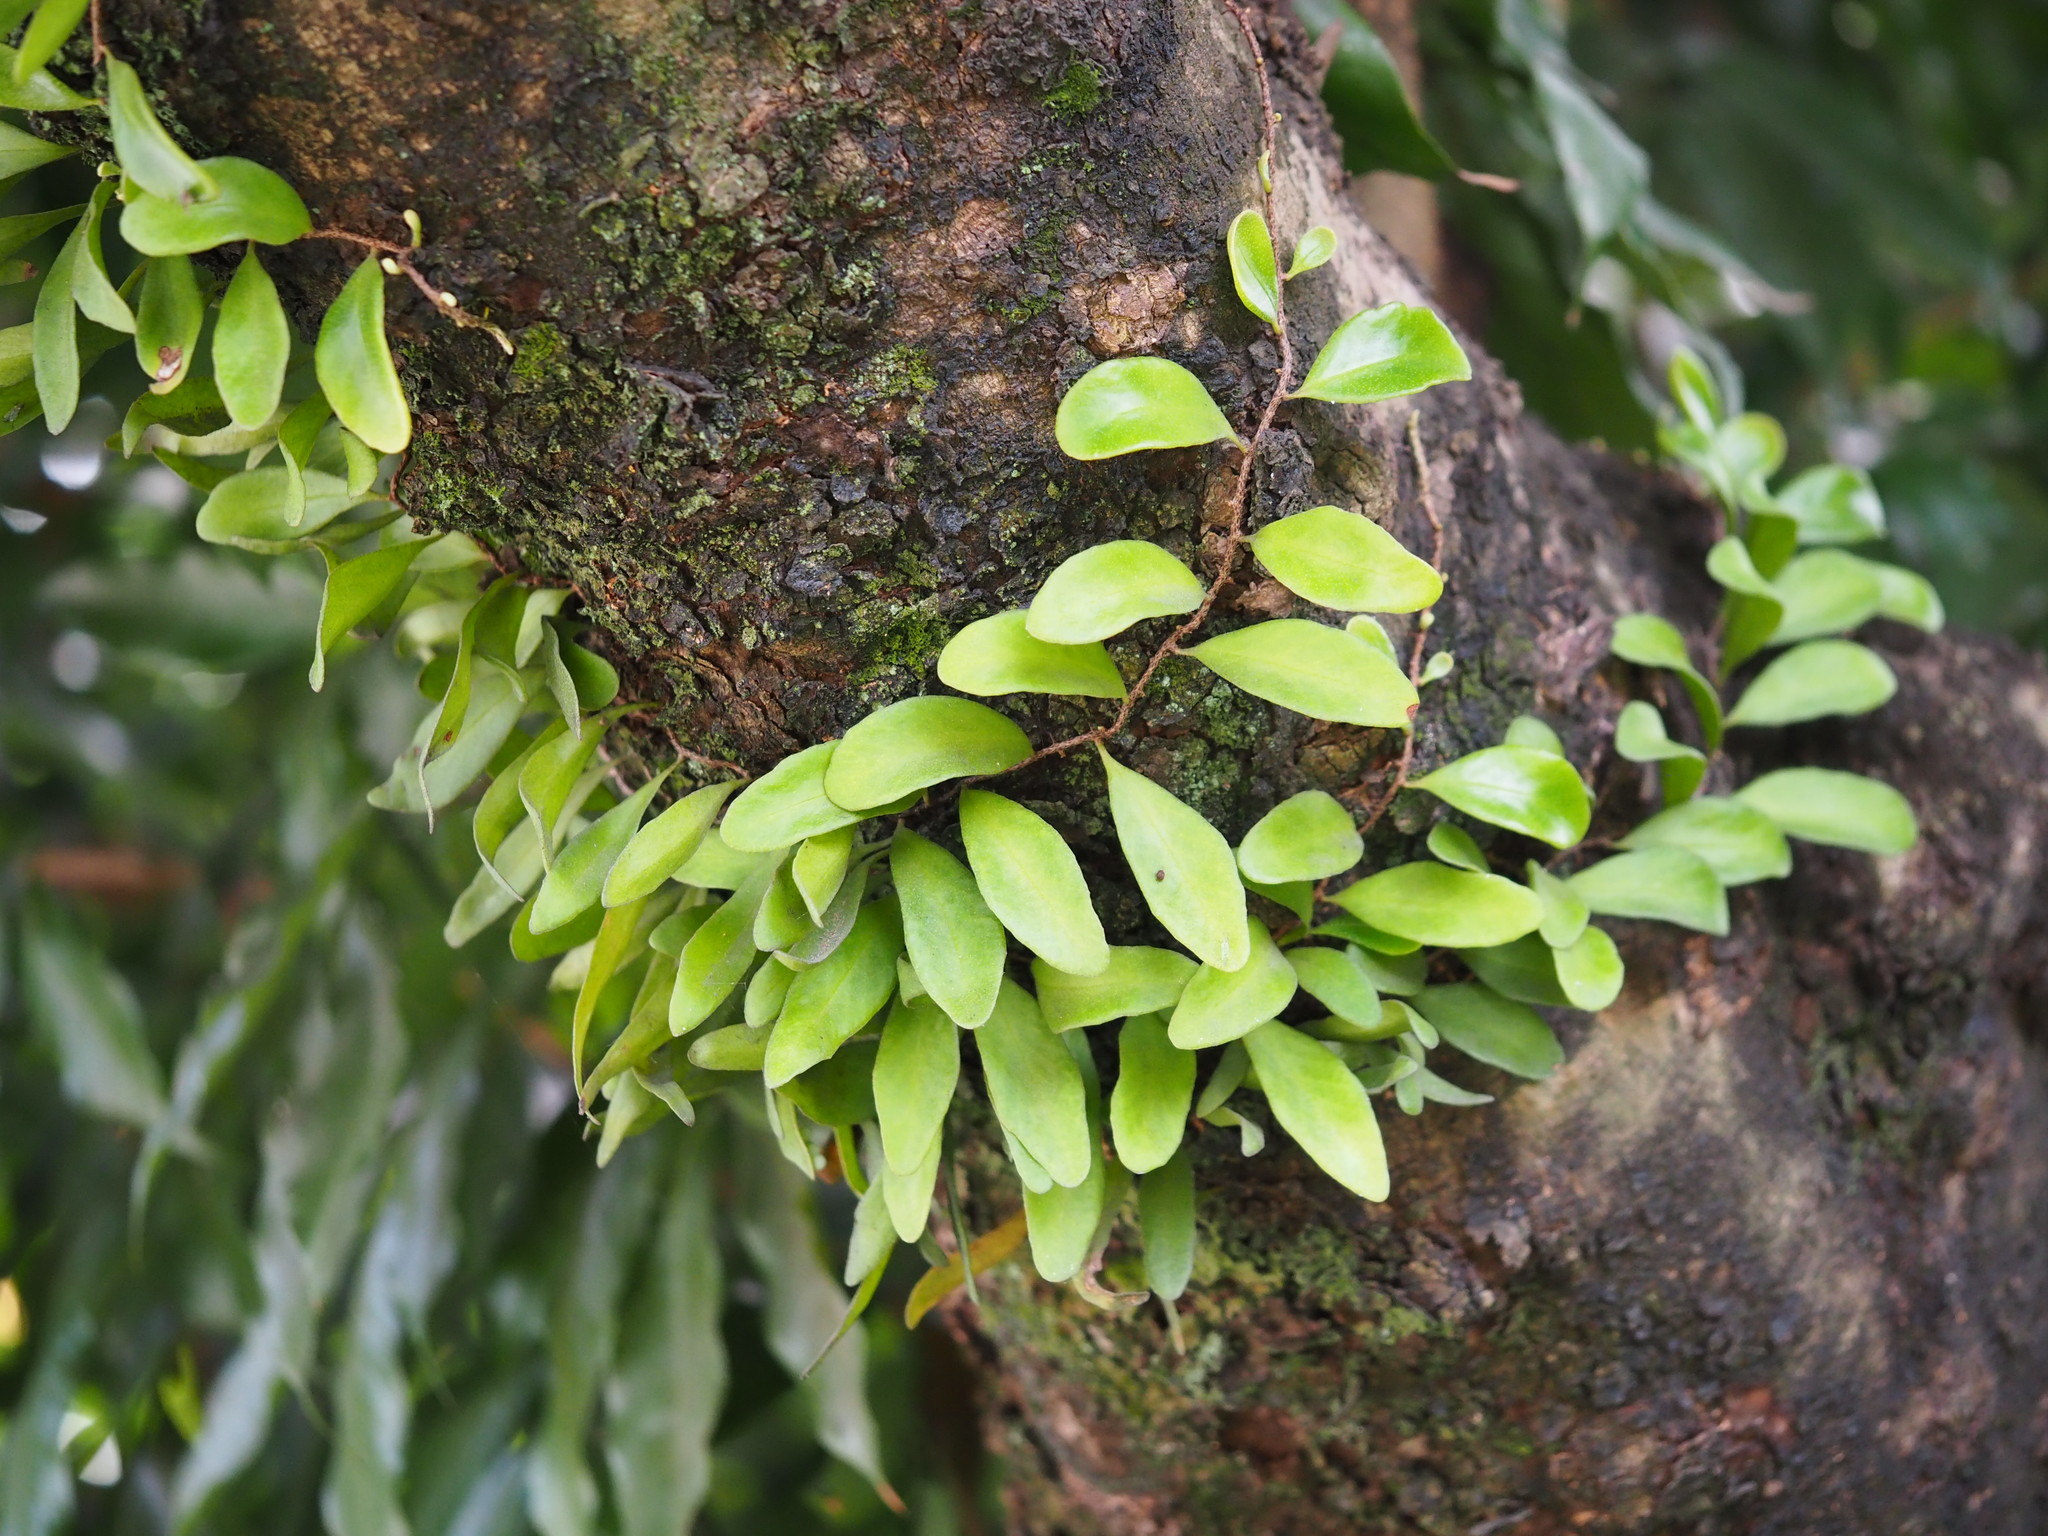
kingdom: Plantae
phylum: Tracheophyta
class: Polypodiopsida
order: Polypodiales
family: Polypodiaceae
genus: Pyrrosia
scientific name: Pyrrosia lanceolata
